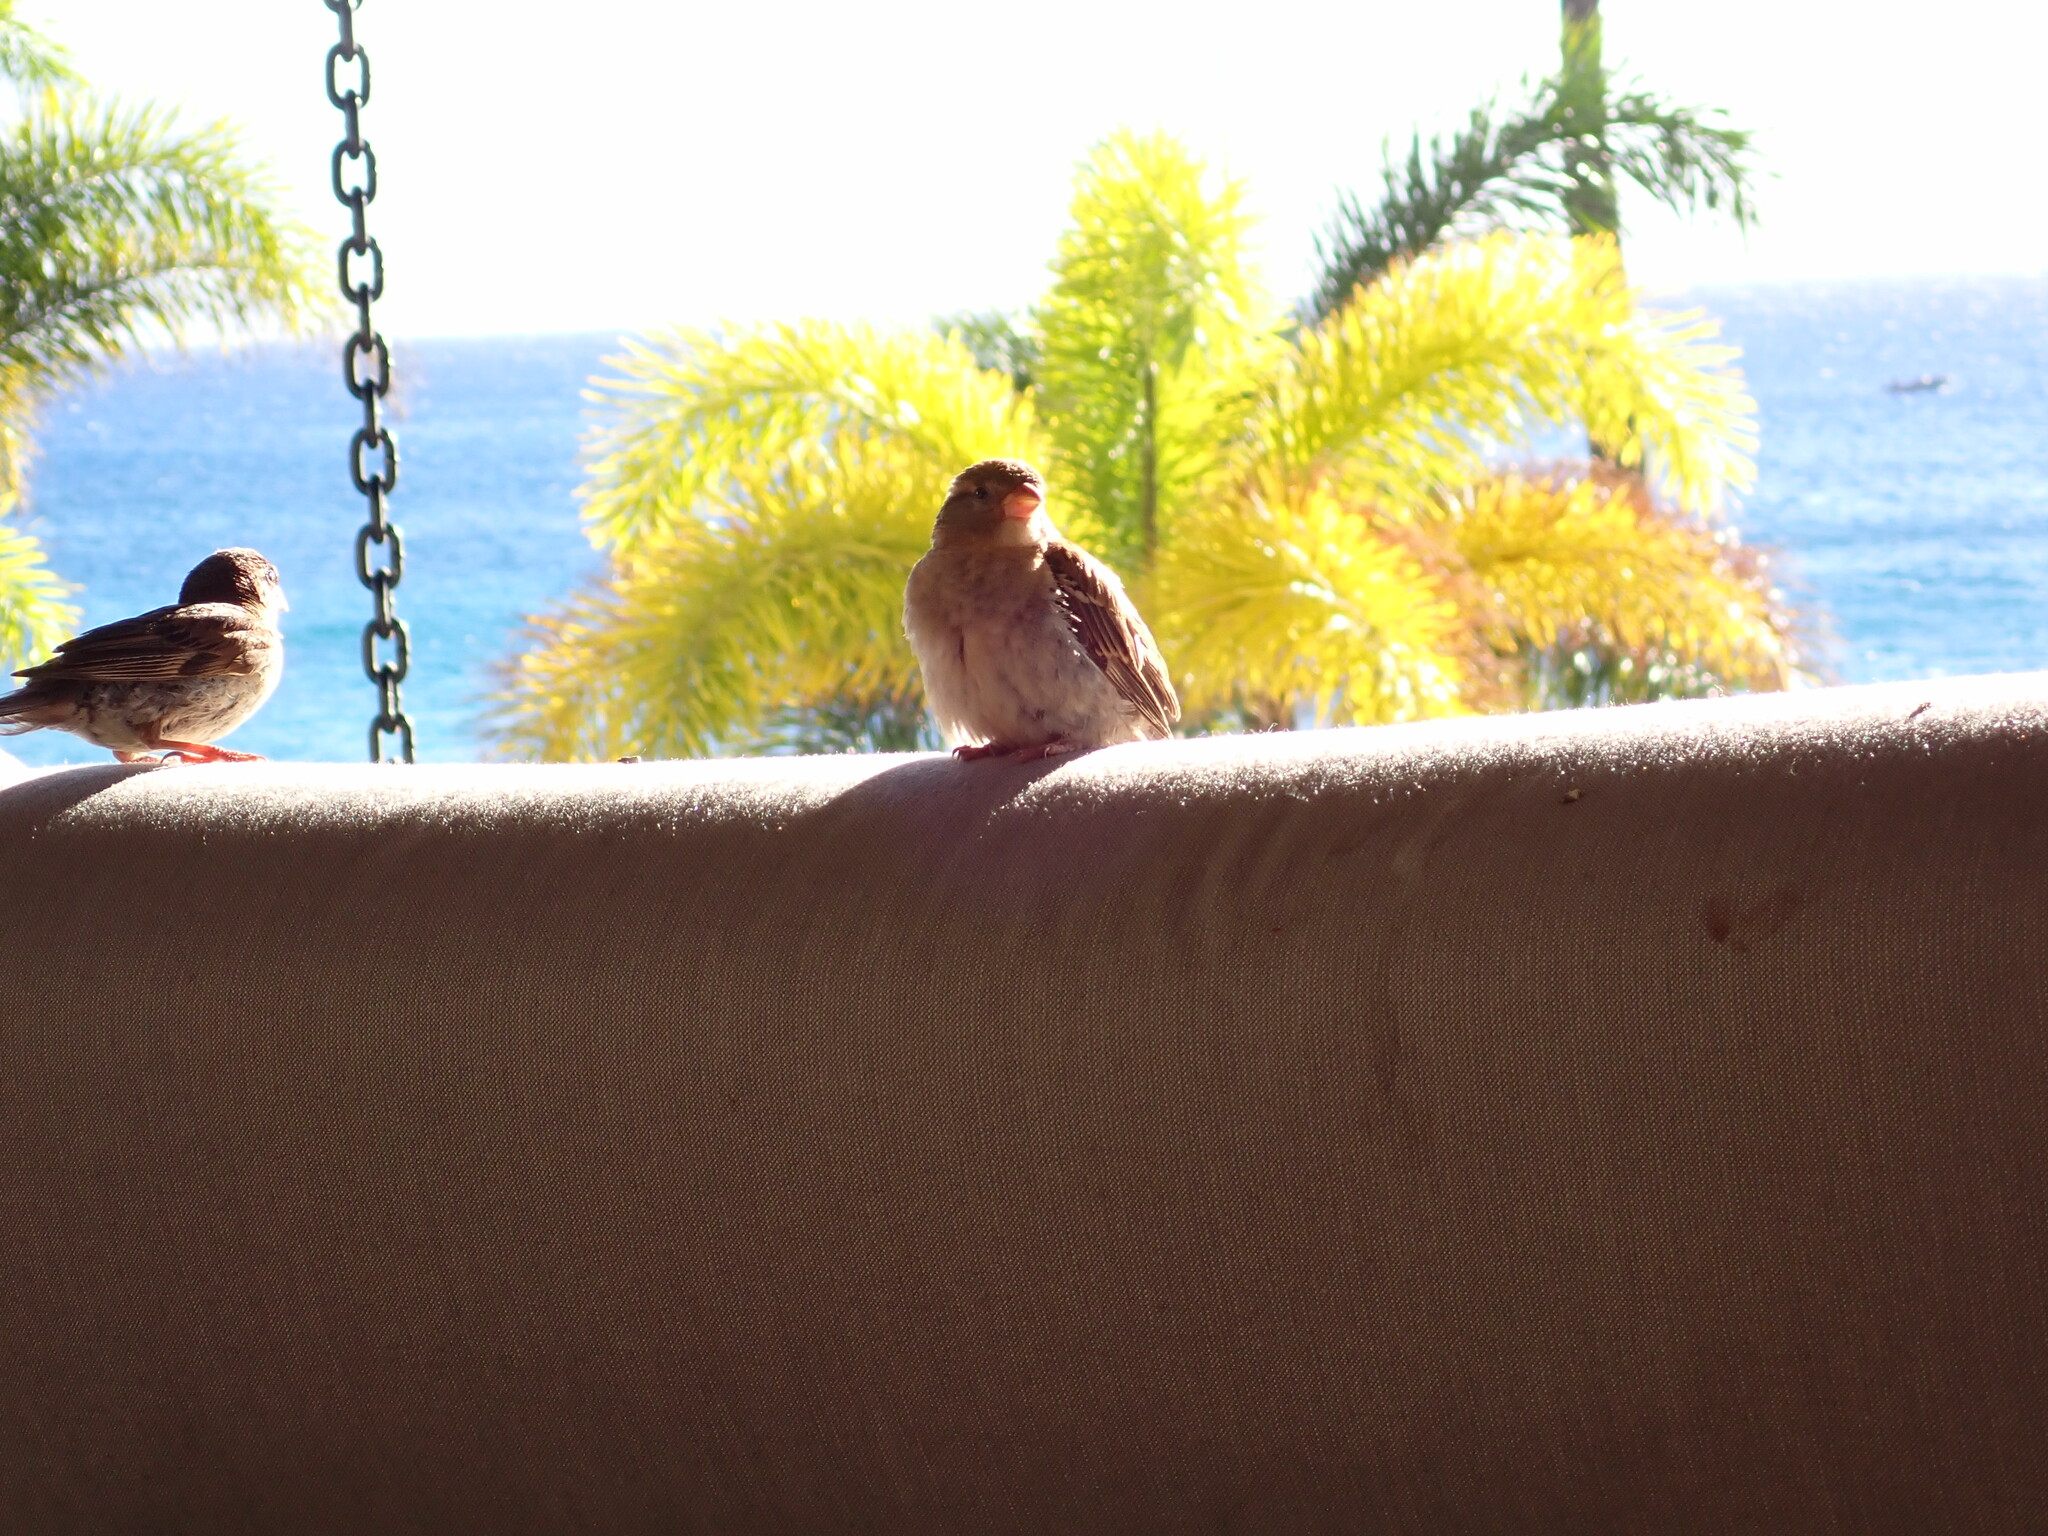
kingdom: Animalia
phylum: Chordata
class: Aves
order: Passeriformes
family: Passeridae
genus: Passer
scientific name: Passer domesticus
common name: House sparrow
